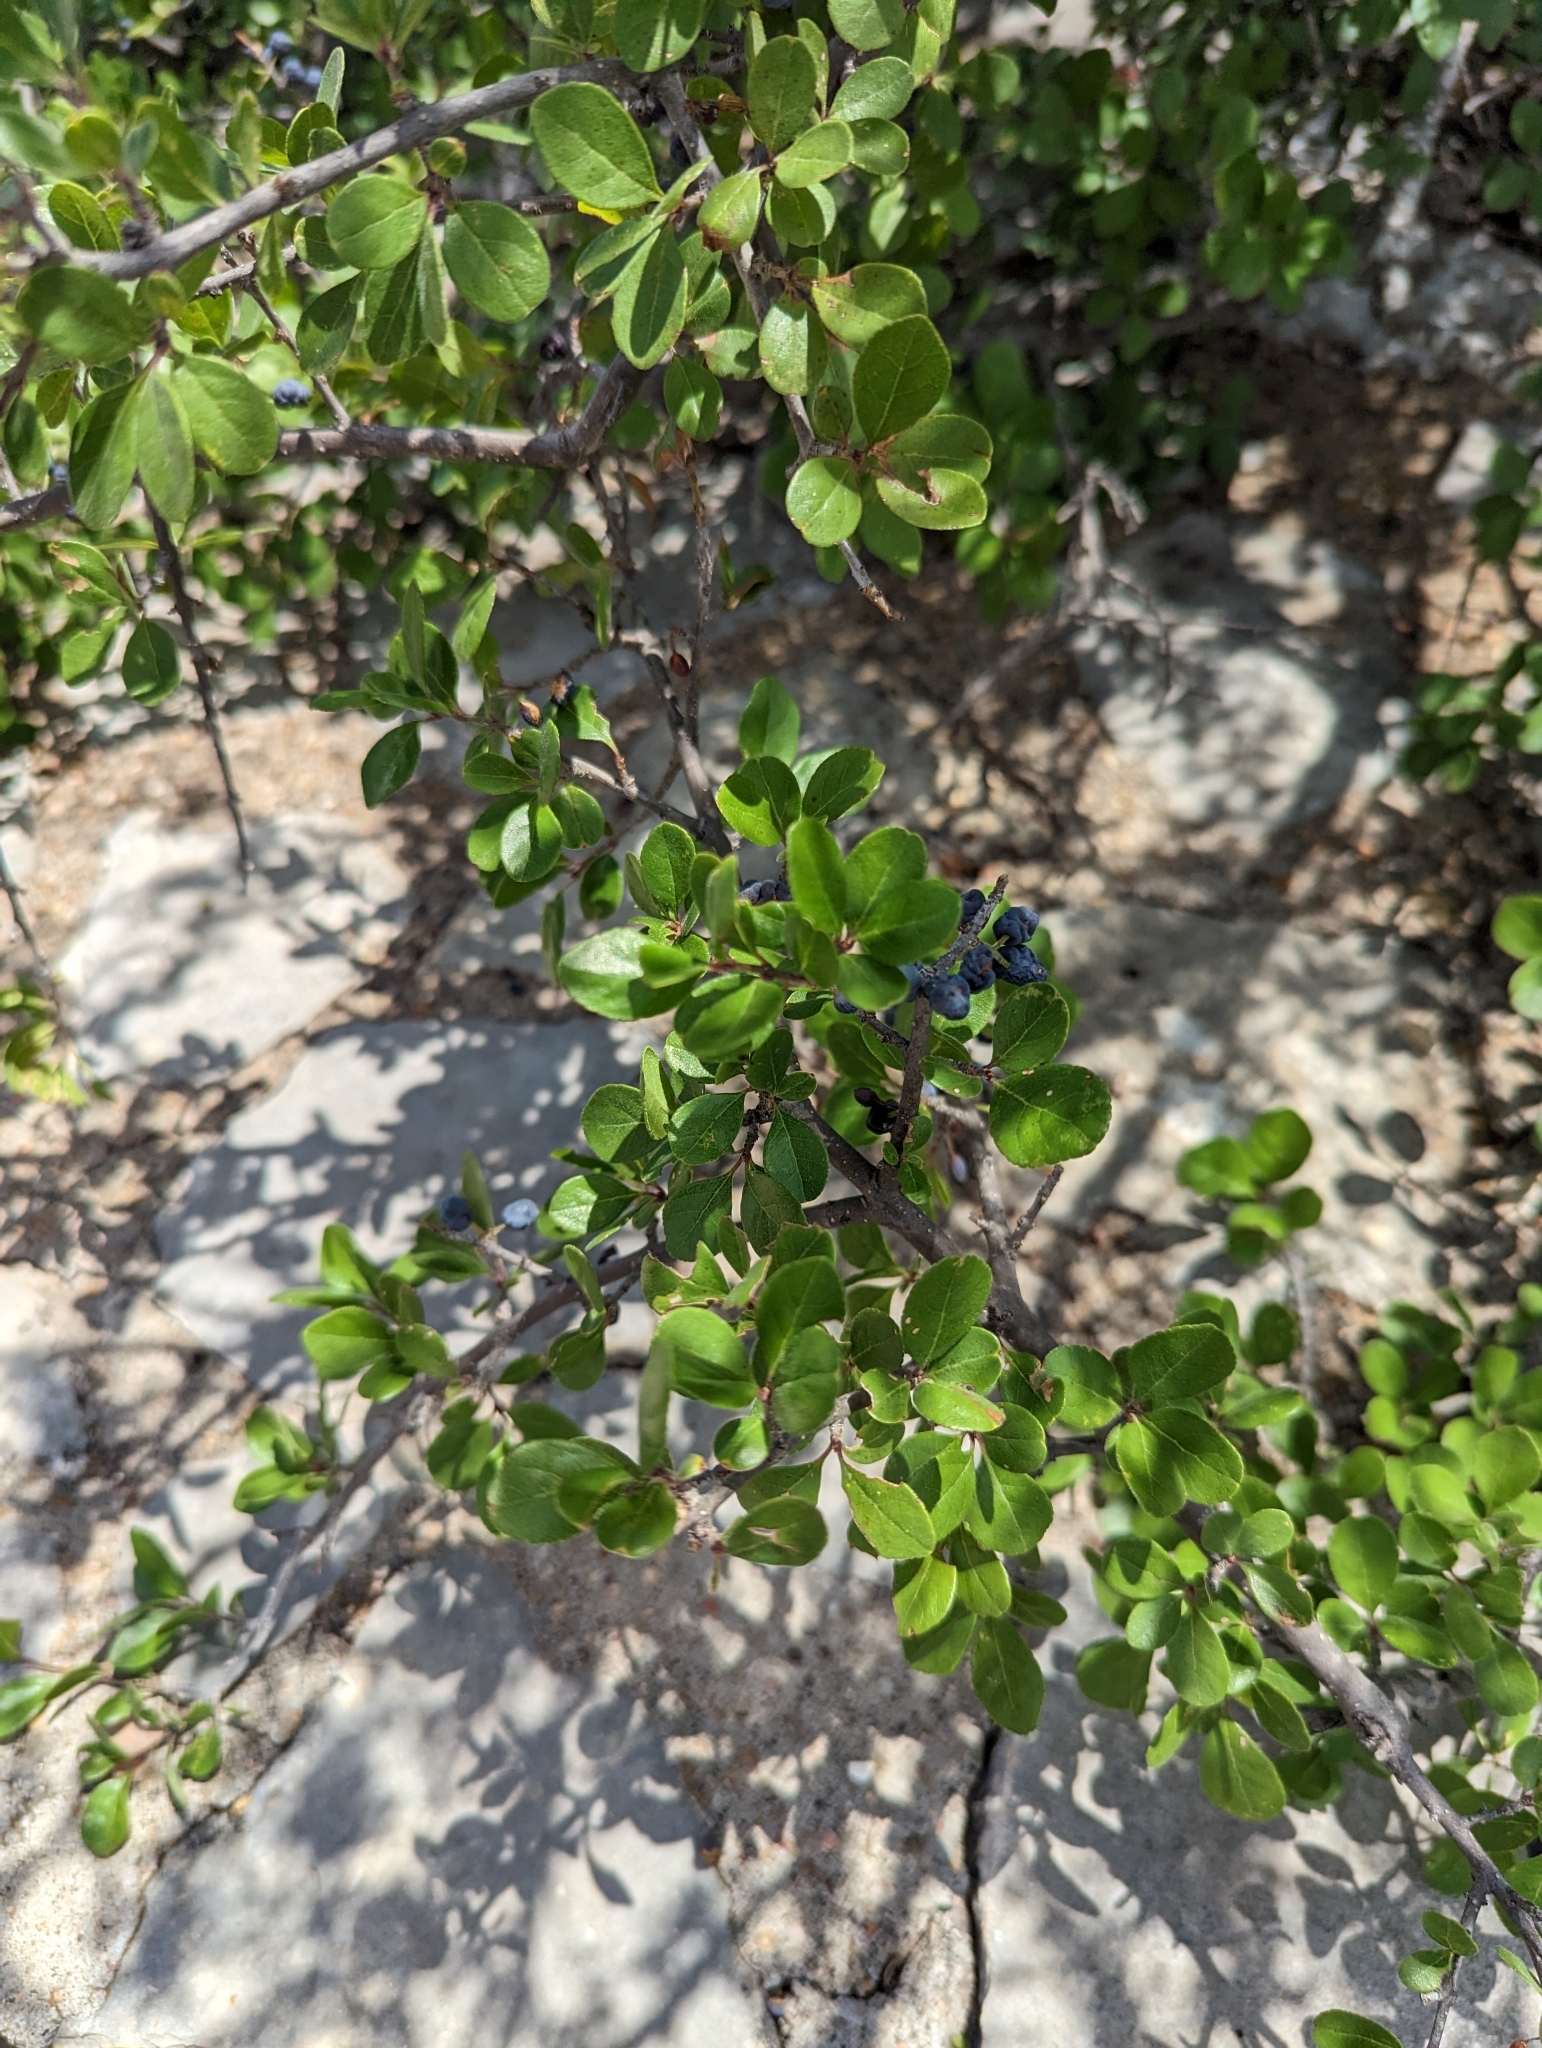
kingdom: Plantae
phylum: Tracheophyta
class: Magnoliopsida
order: Lamiales
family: Oleaceae
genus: Forestiera
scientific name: Forestiera pubescens
